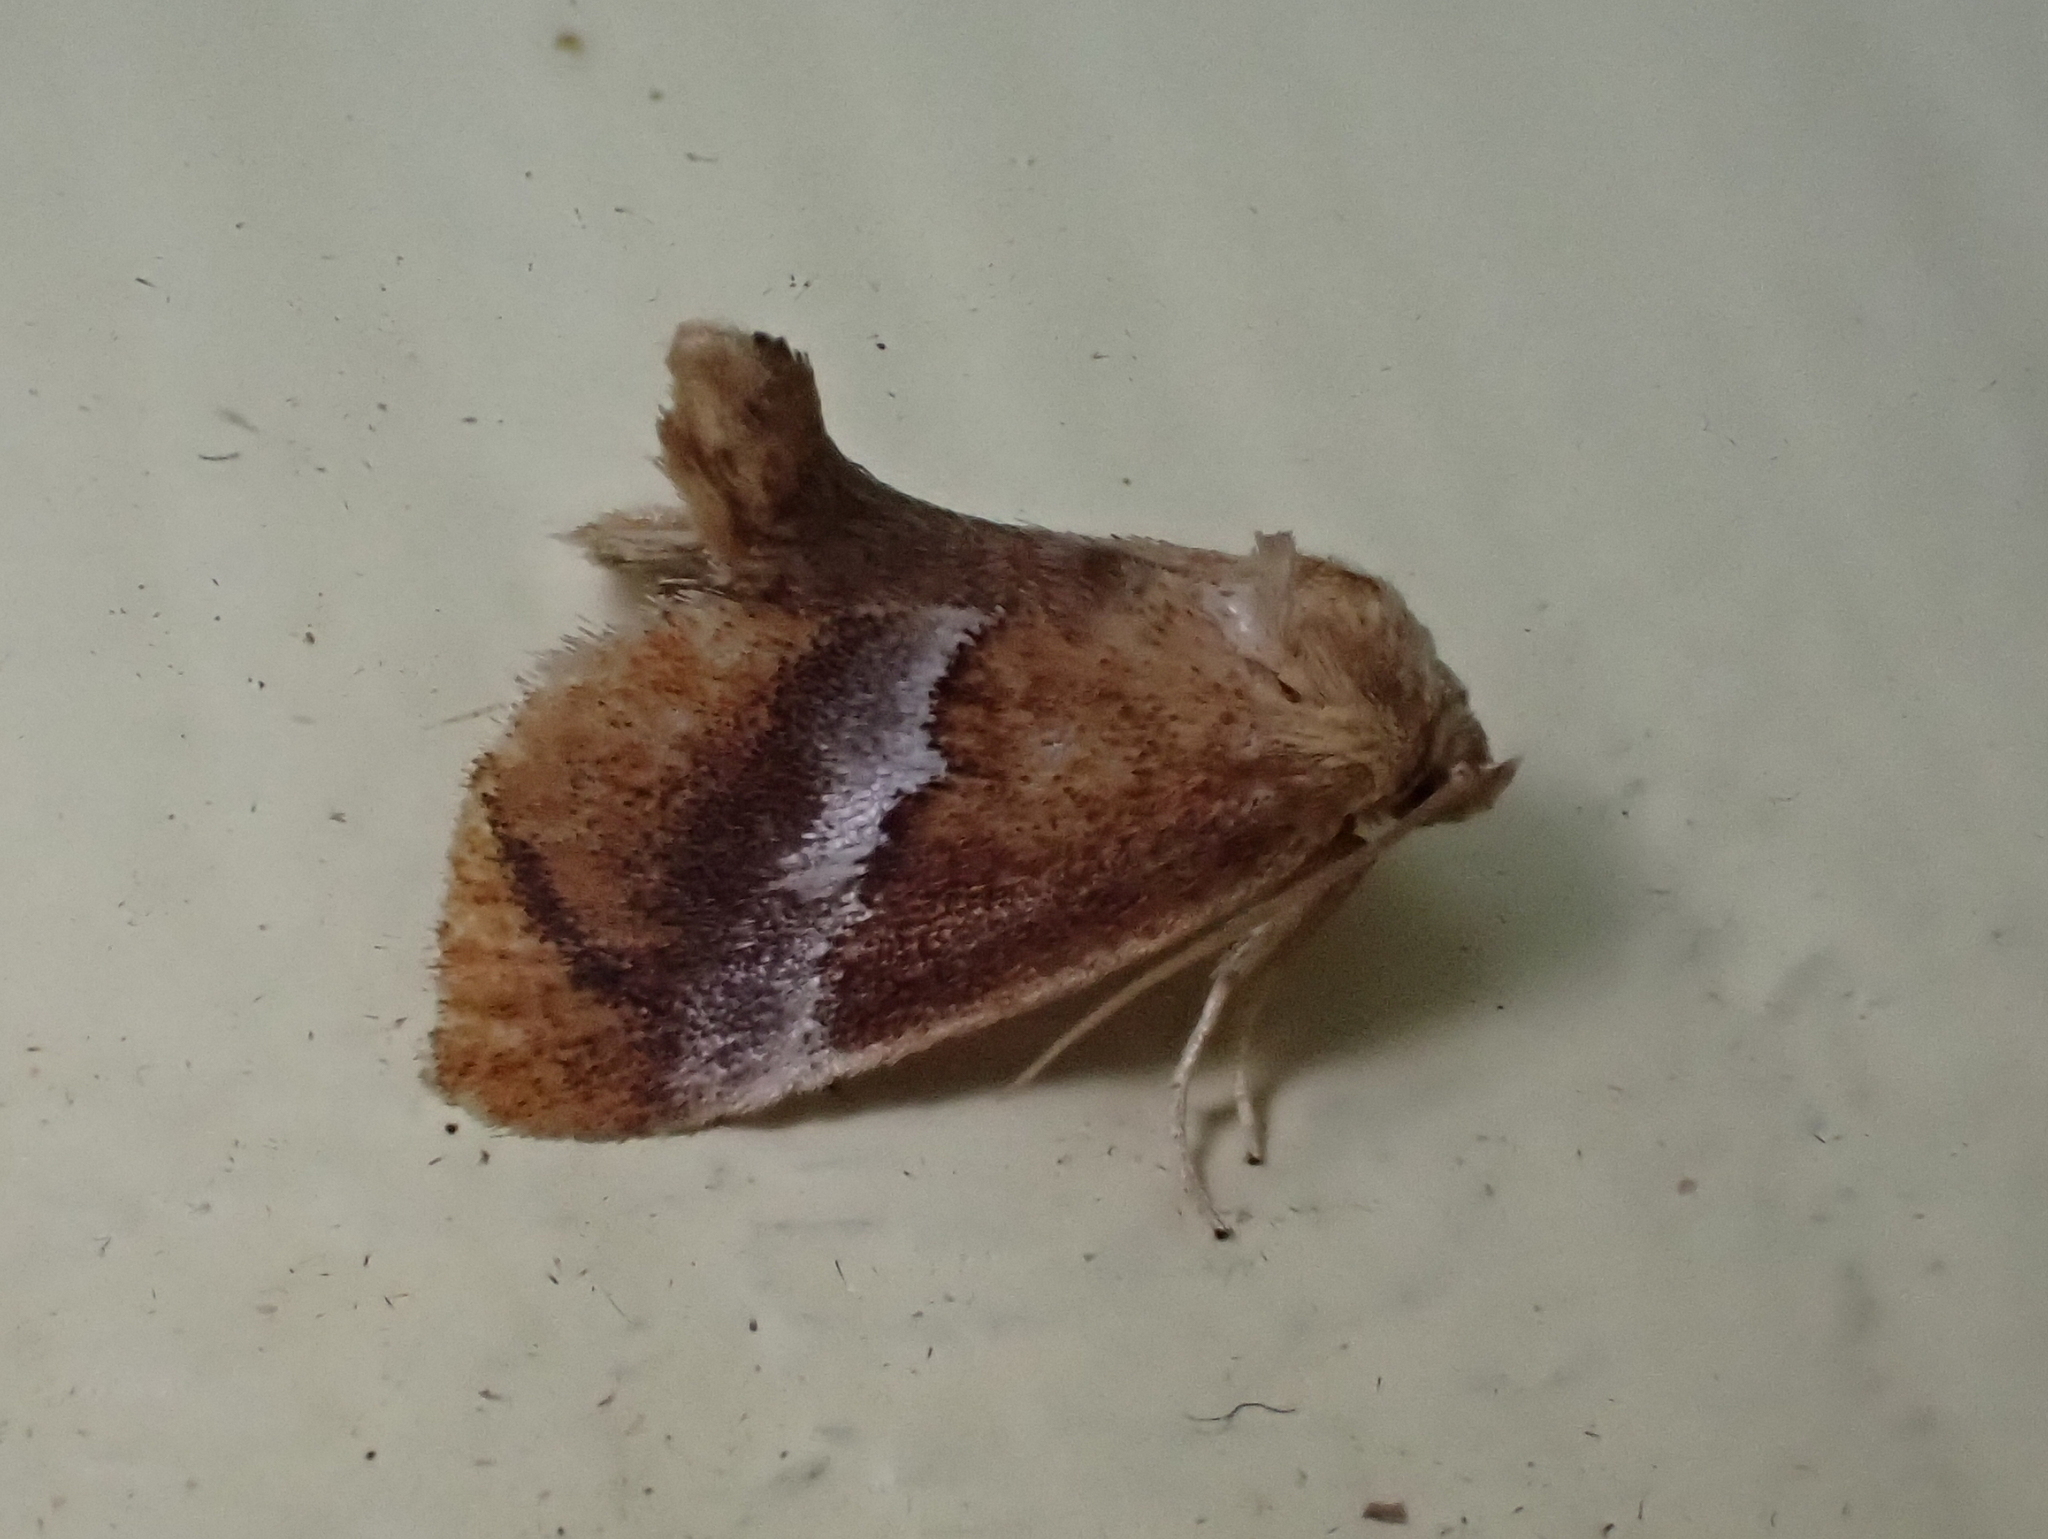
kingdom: Animalia
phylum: Arthropoda
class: Insecta
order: Lepidoptera
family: Limacodidae
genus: Lithacodes
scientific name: Lithacodes fasciola
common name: Yellow-shouldered slug moth
